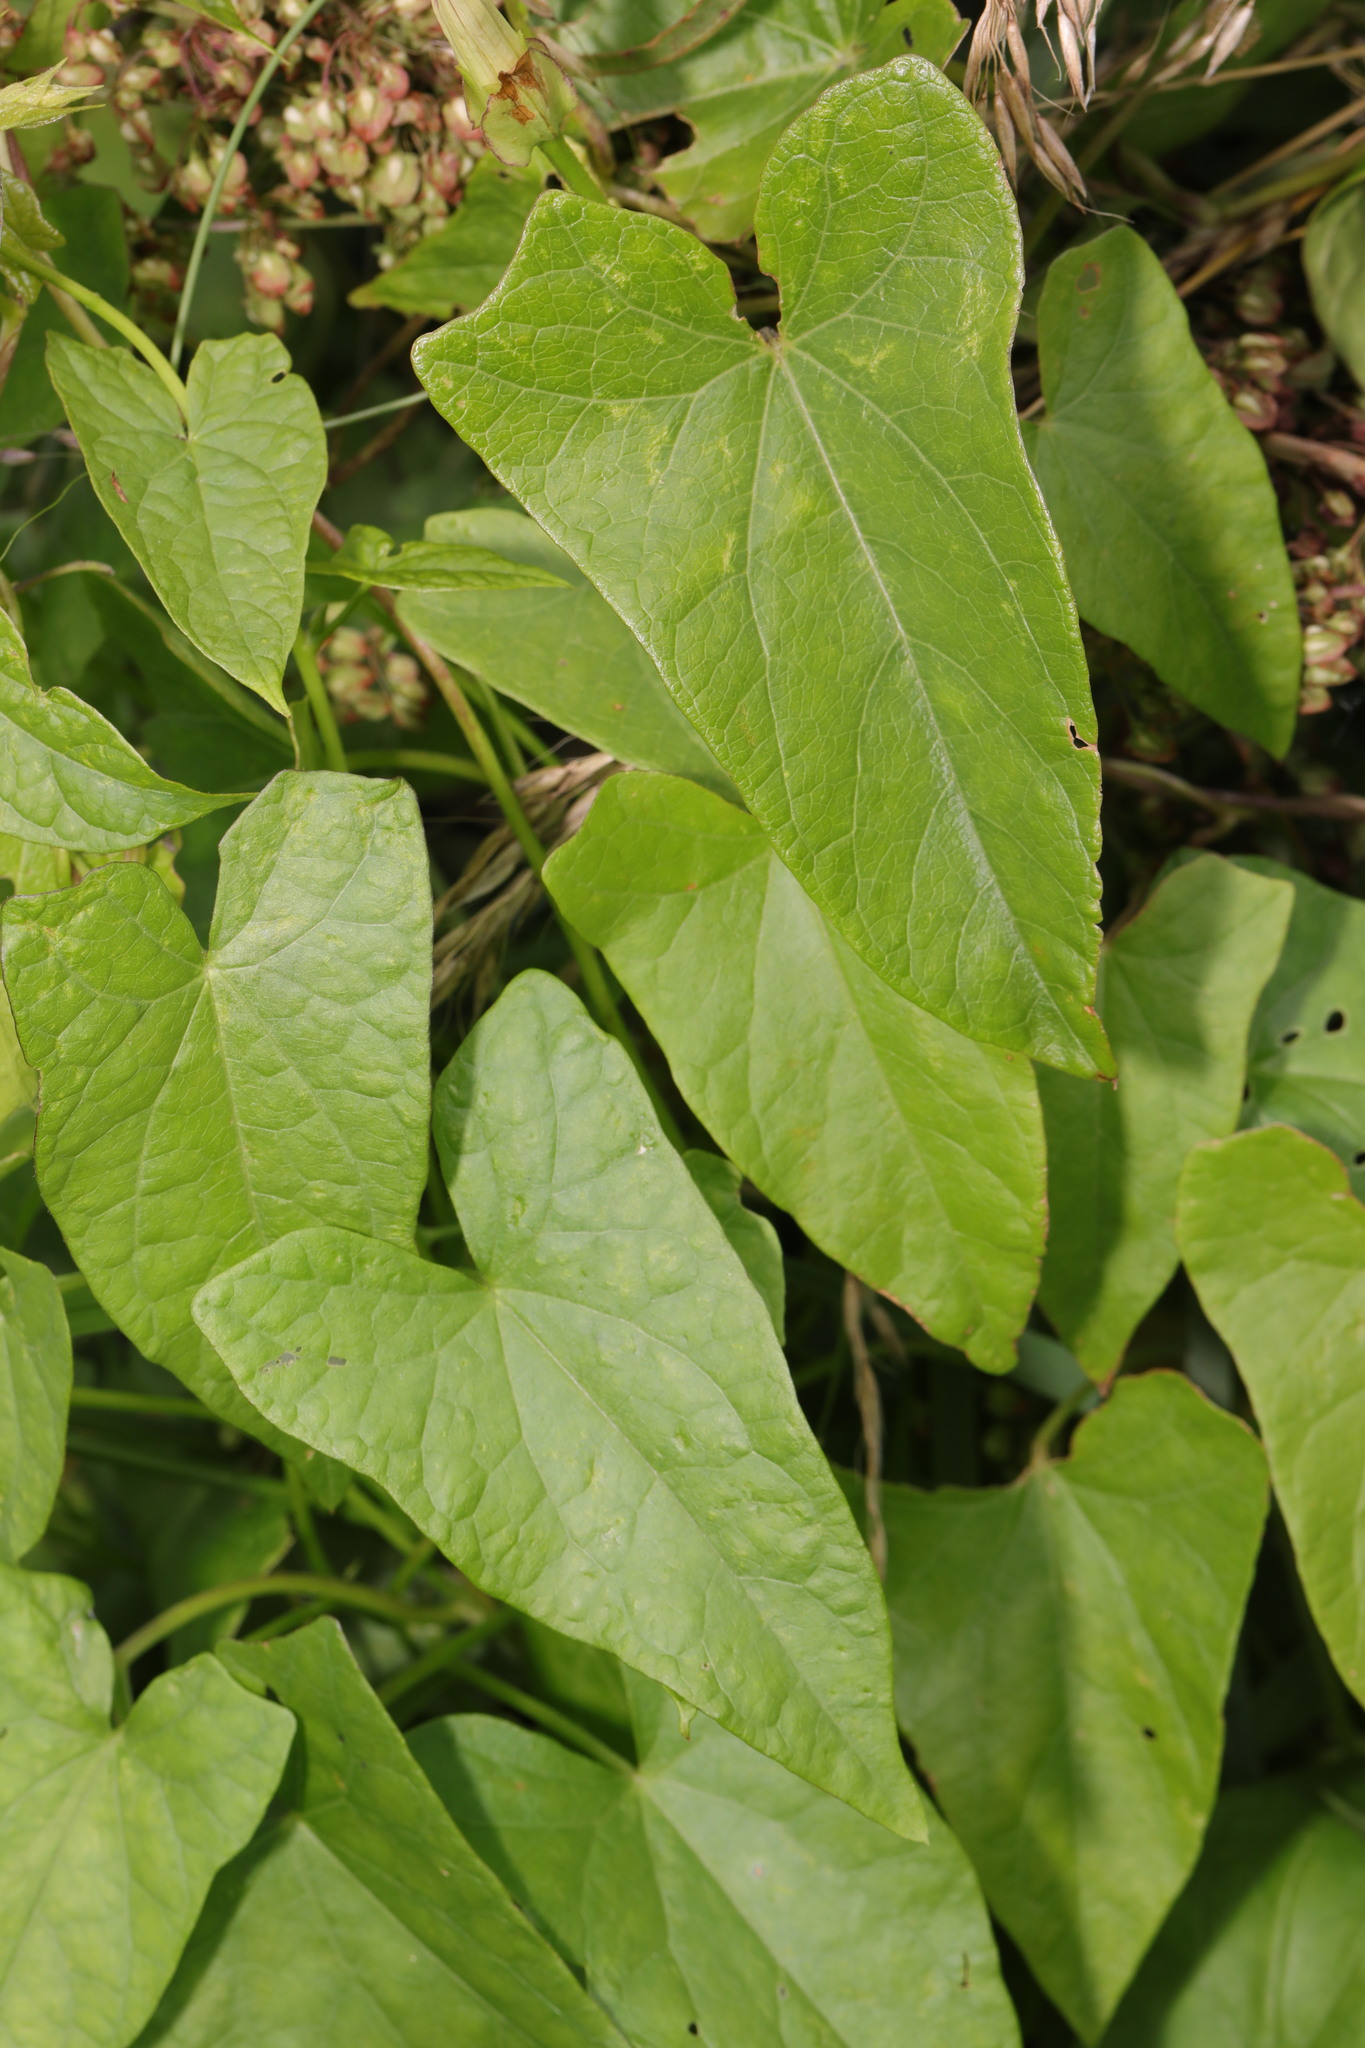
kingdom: Plantae
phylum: Tracheophyta
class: Magnoliopsida
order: Solanales
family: Convolvulaceae
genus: Calystegia
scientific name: Calystegia sepium
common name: Hedge bindweed
